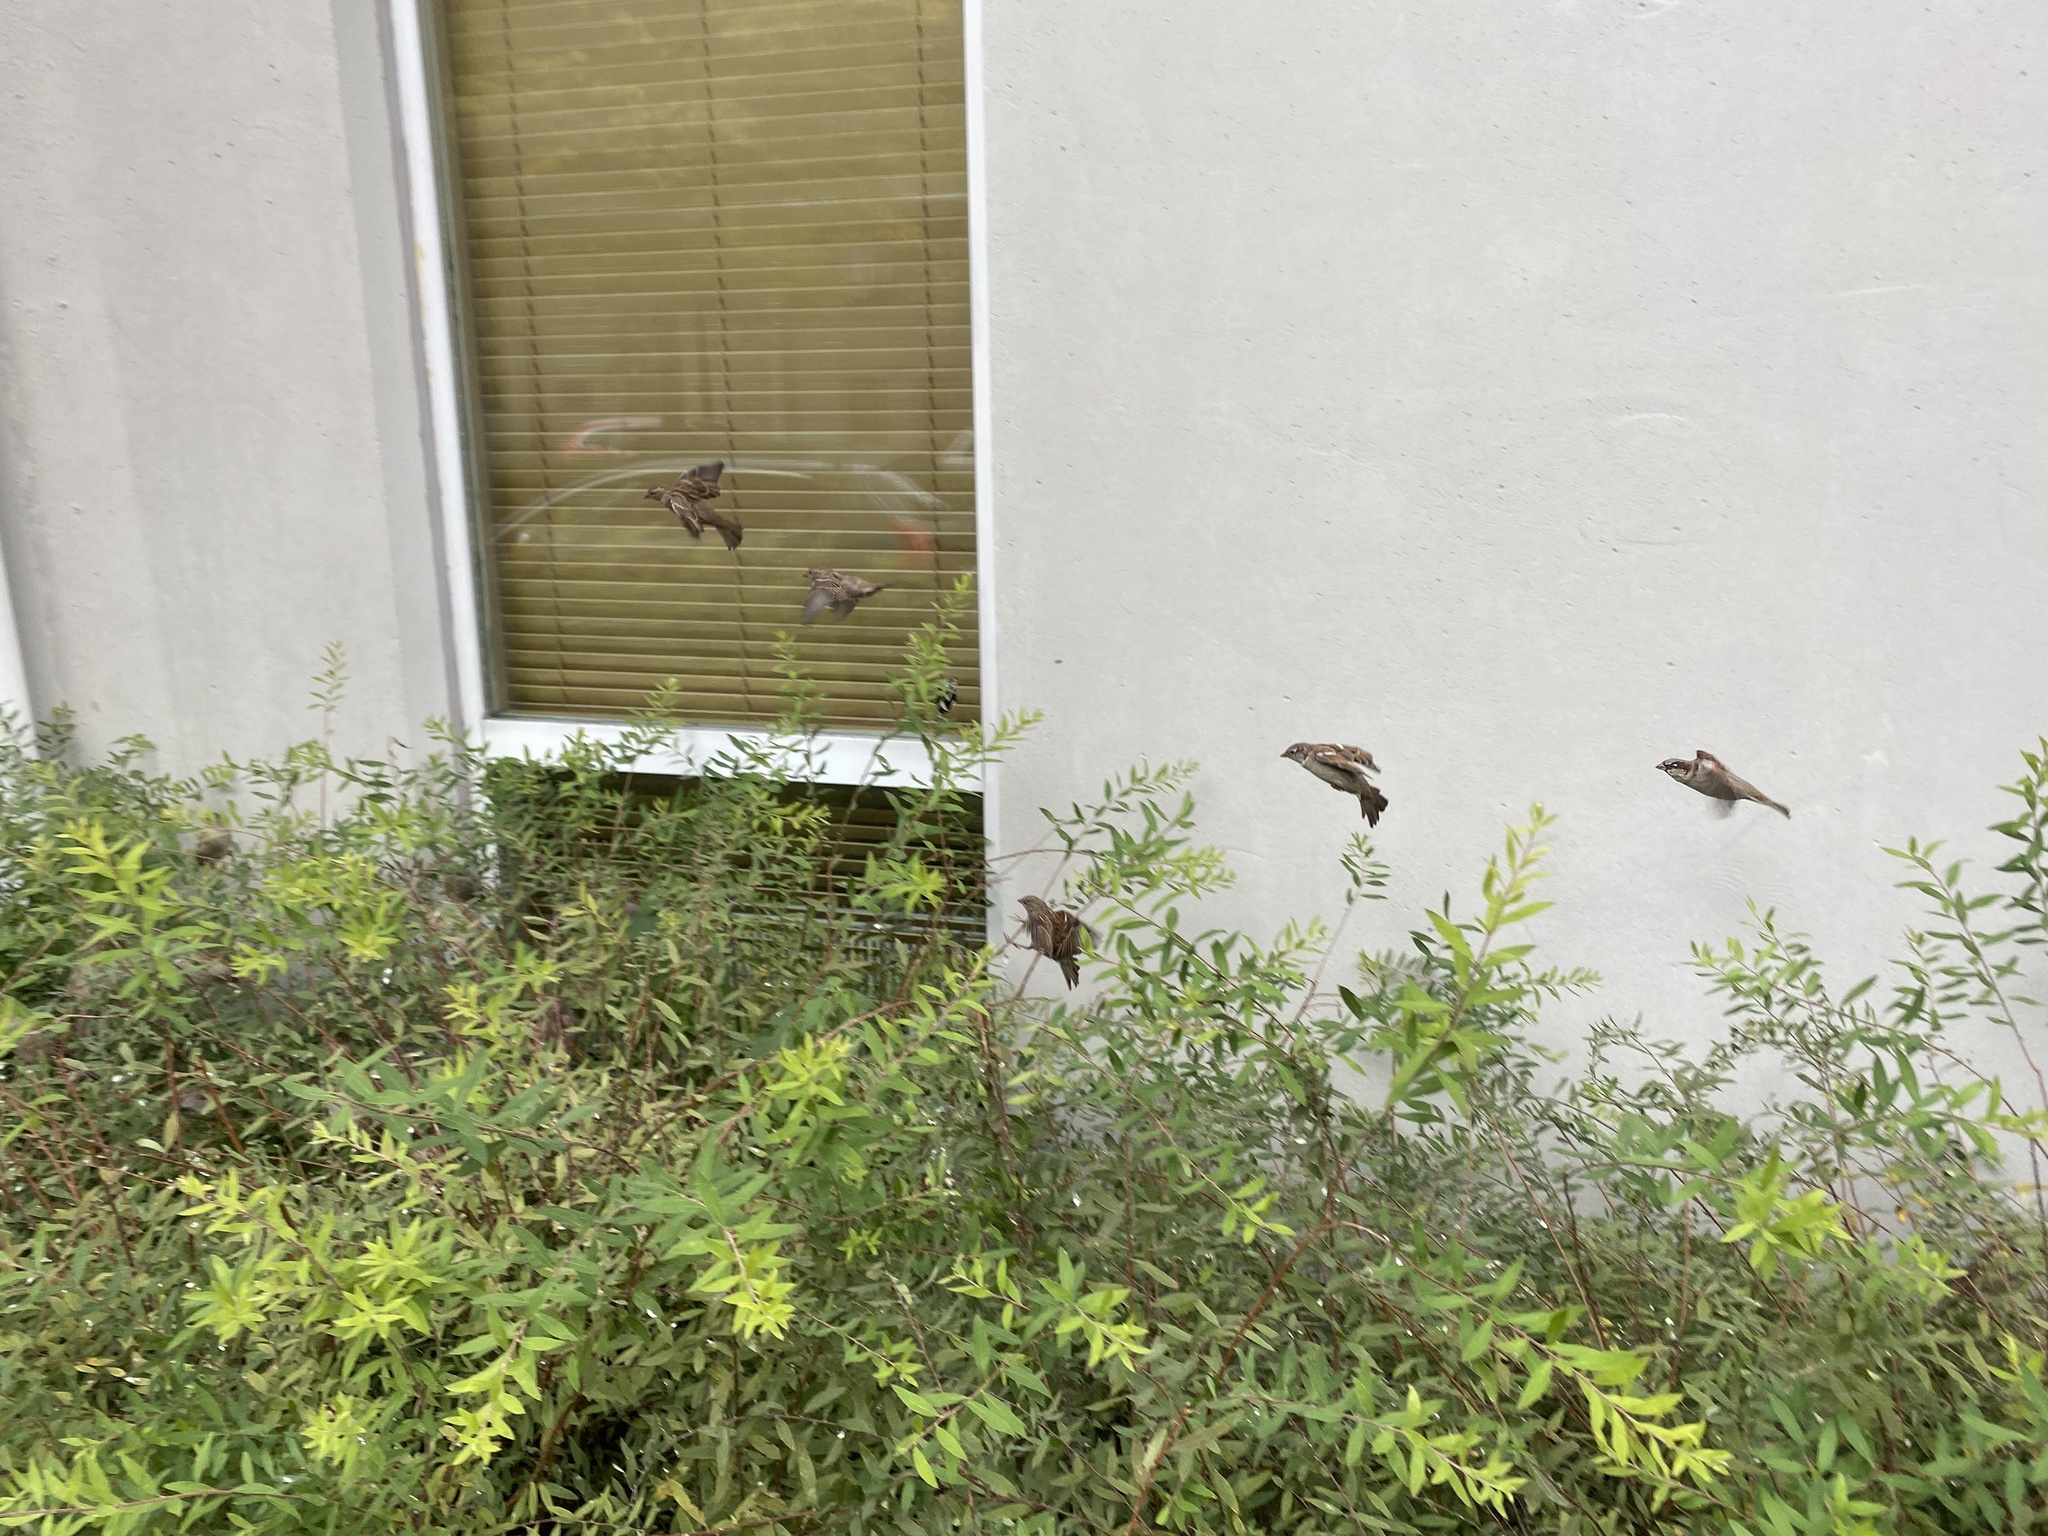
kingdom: Animalia
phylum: Chordata
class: Aves
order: Passeriformes
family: Passeridae
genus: Passer
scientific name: Passer domesticus
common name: House sparrow
